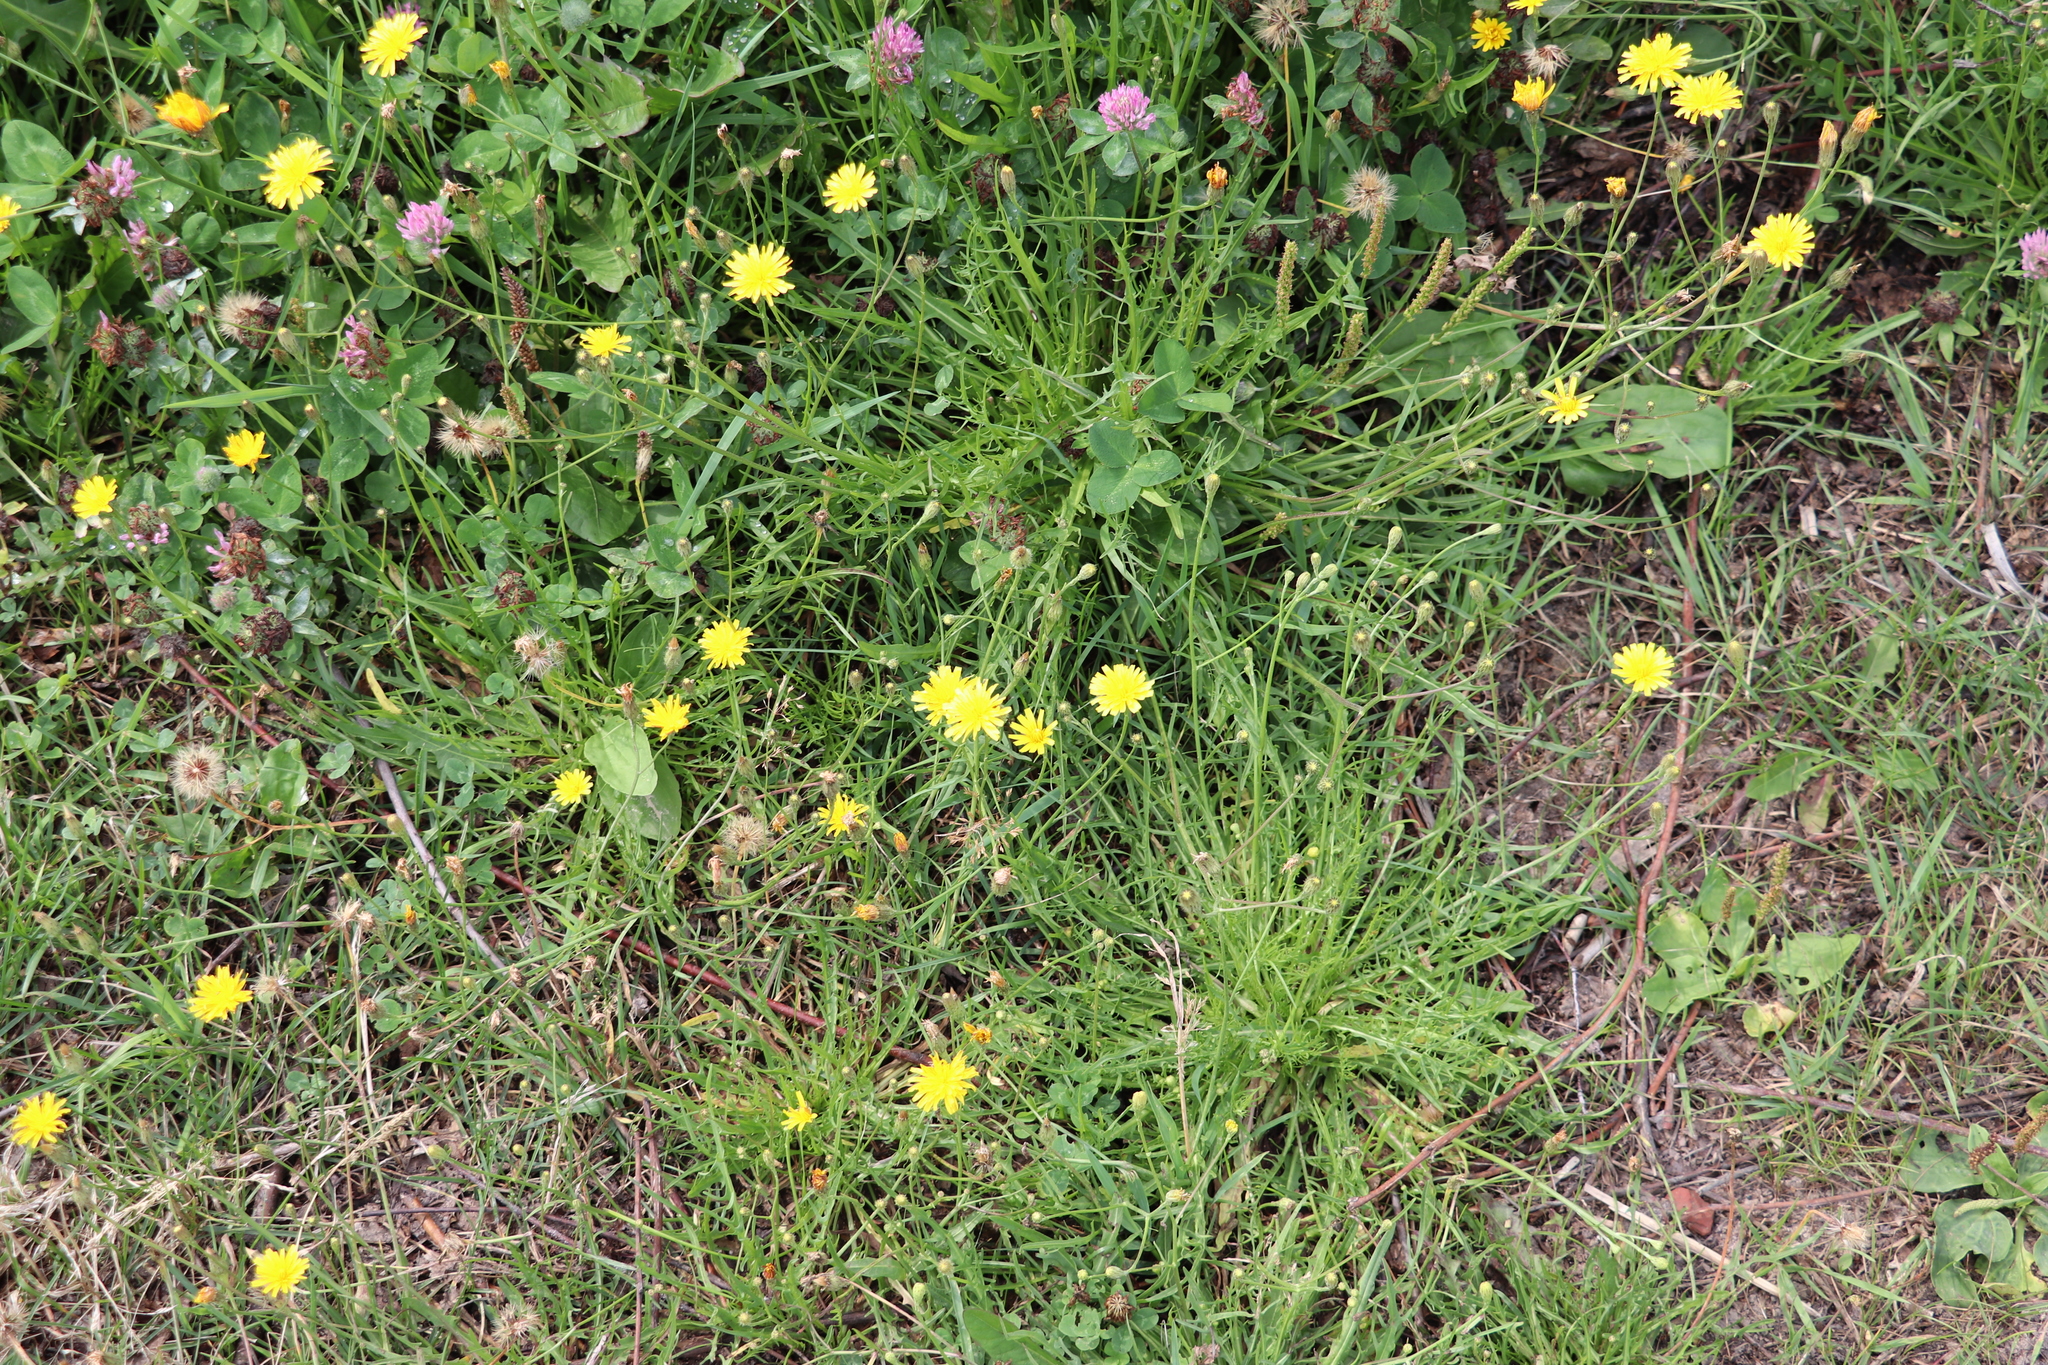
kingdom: Plantae
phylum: Tracheophyta
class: Magnoliopsida
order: Asterales
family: Asteraceae
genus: Scorzoneroides
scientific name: Scorzoneroides autumnalis
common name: Autumn hawkbit
